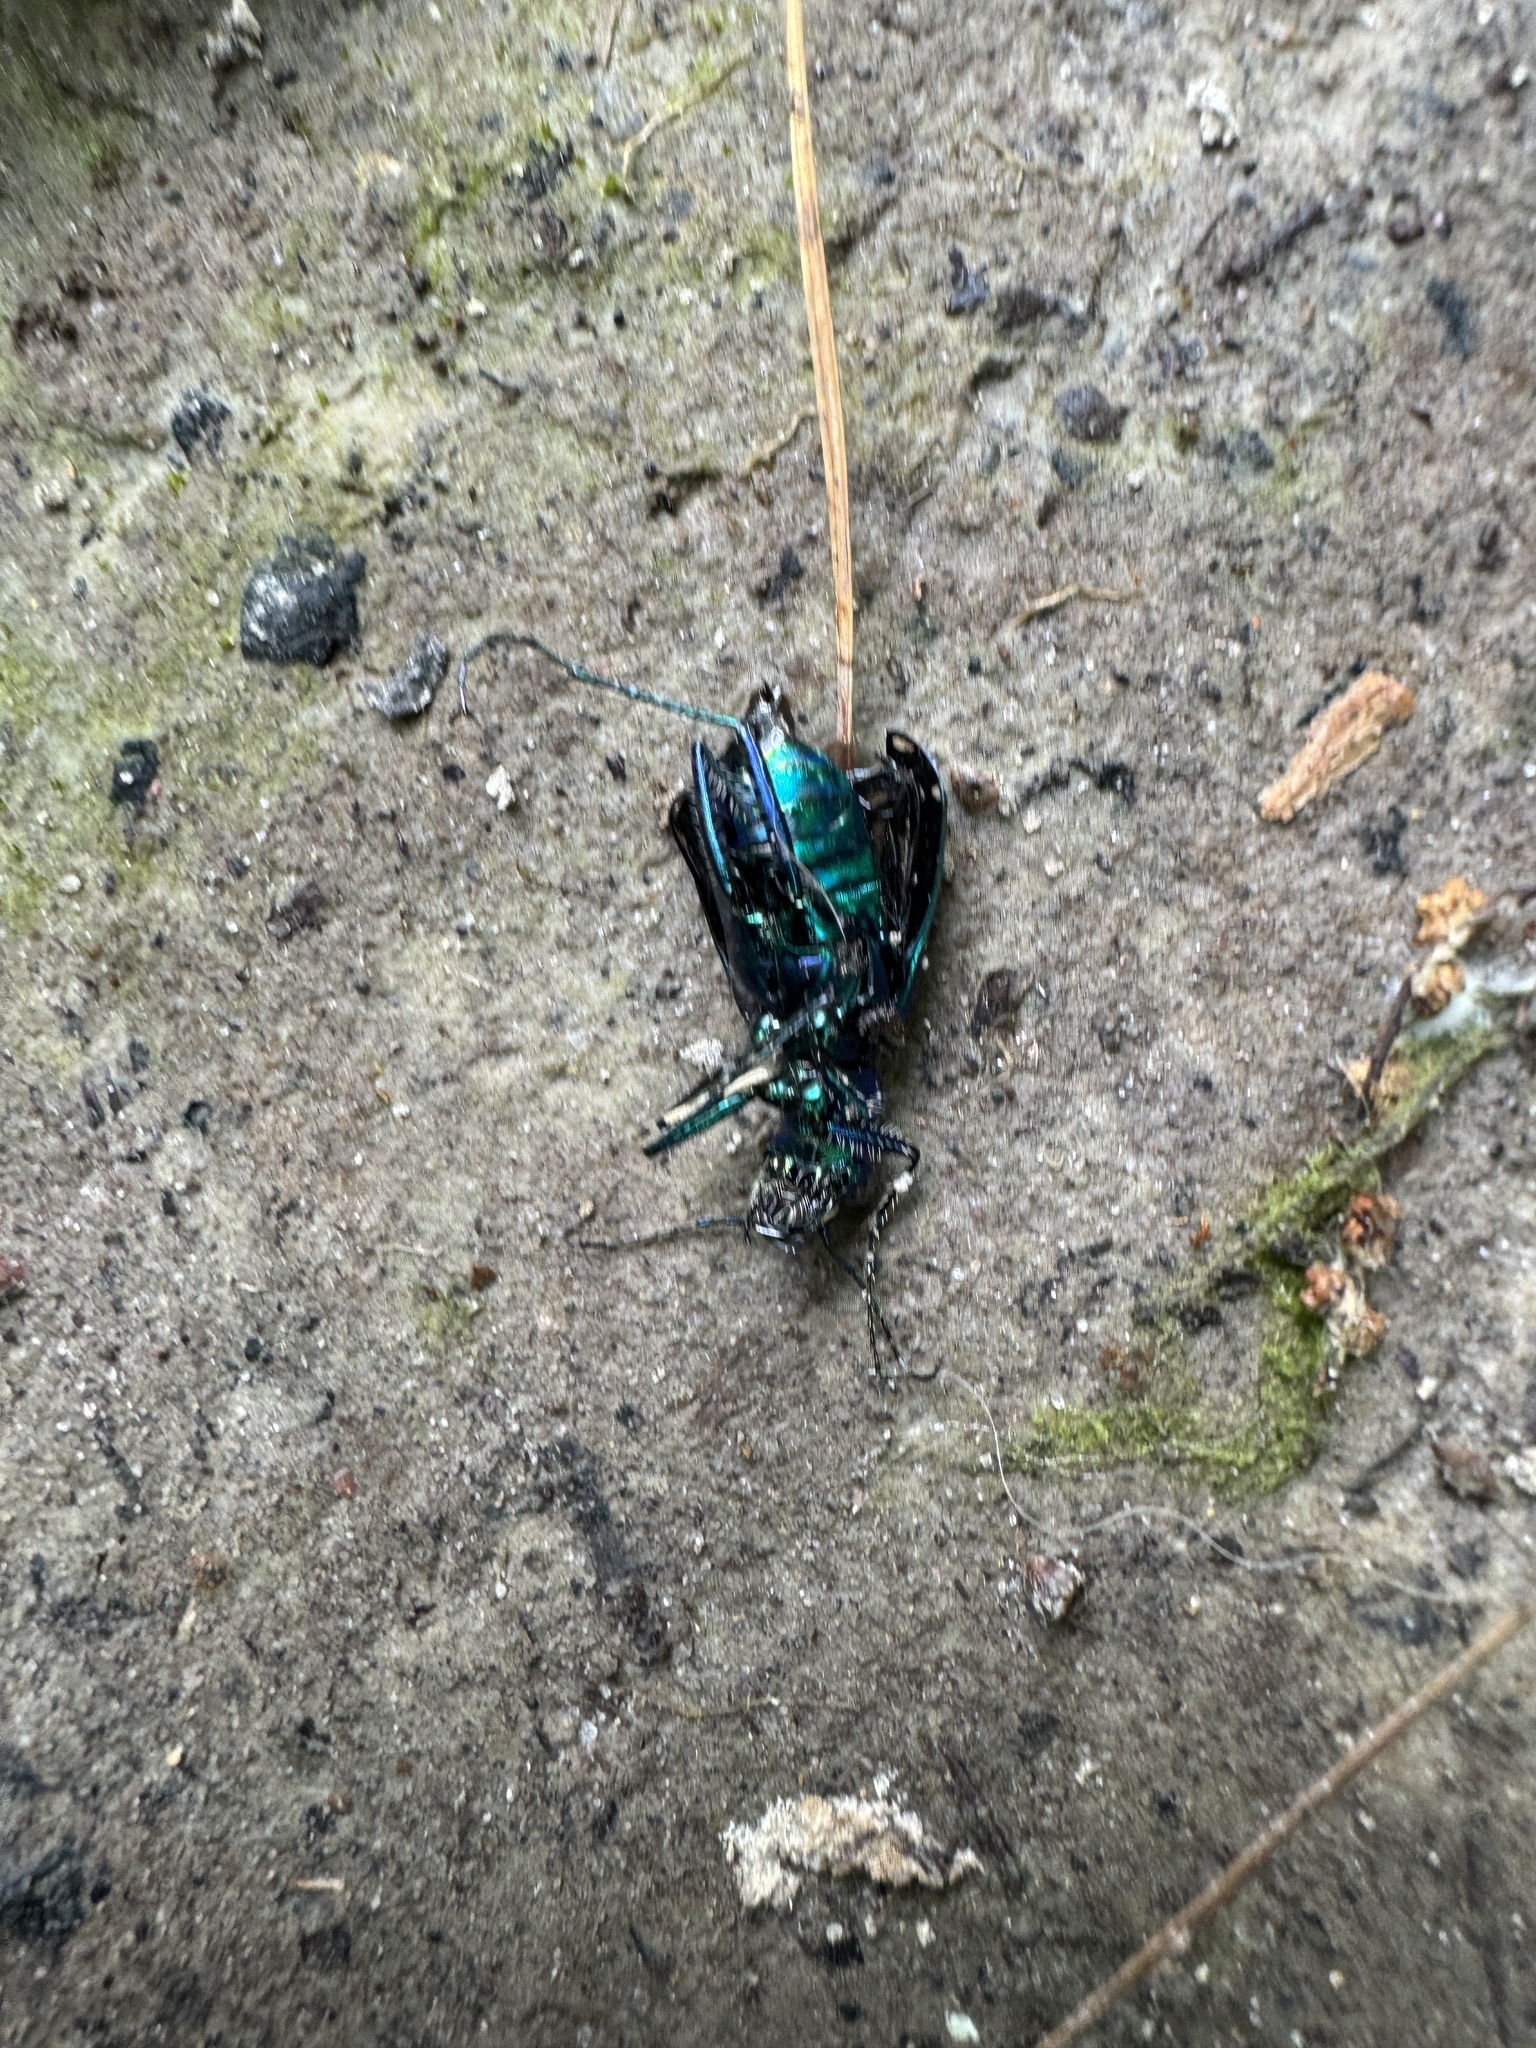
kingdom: Animalia
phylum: Arthropoda
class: Insecta
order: Coleoptera
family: Carabidae
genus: Cicindela
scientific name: Cicindela sexguttata
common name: Six-spotted tiger beetle
